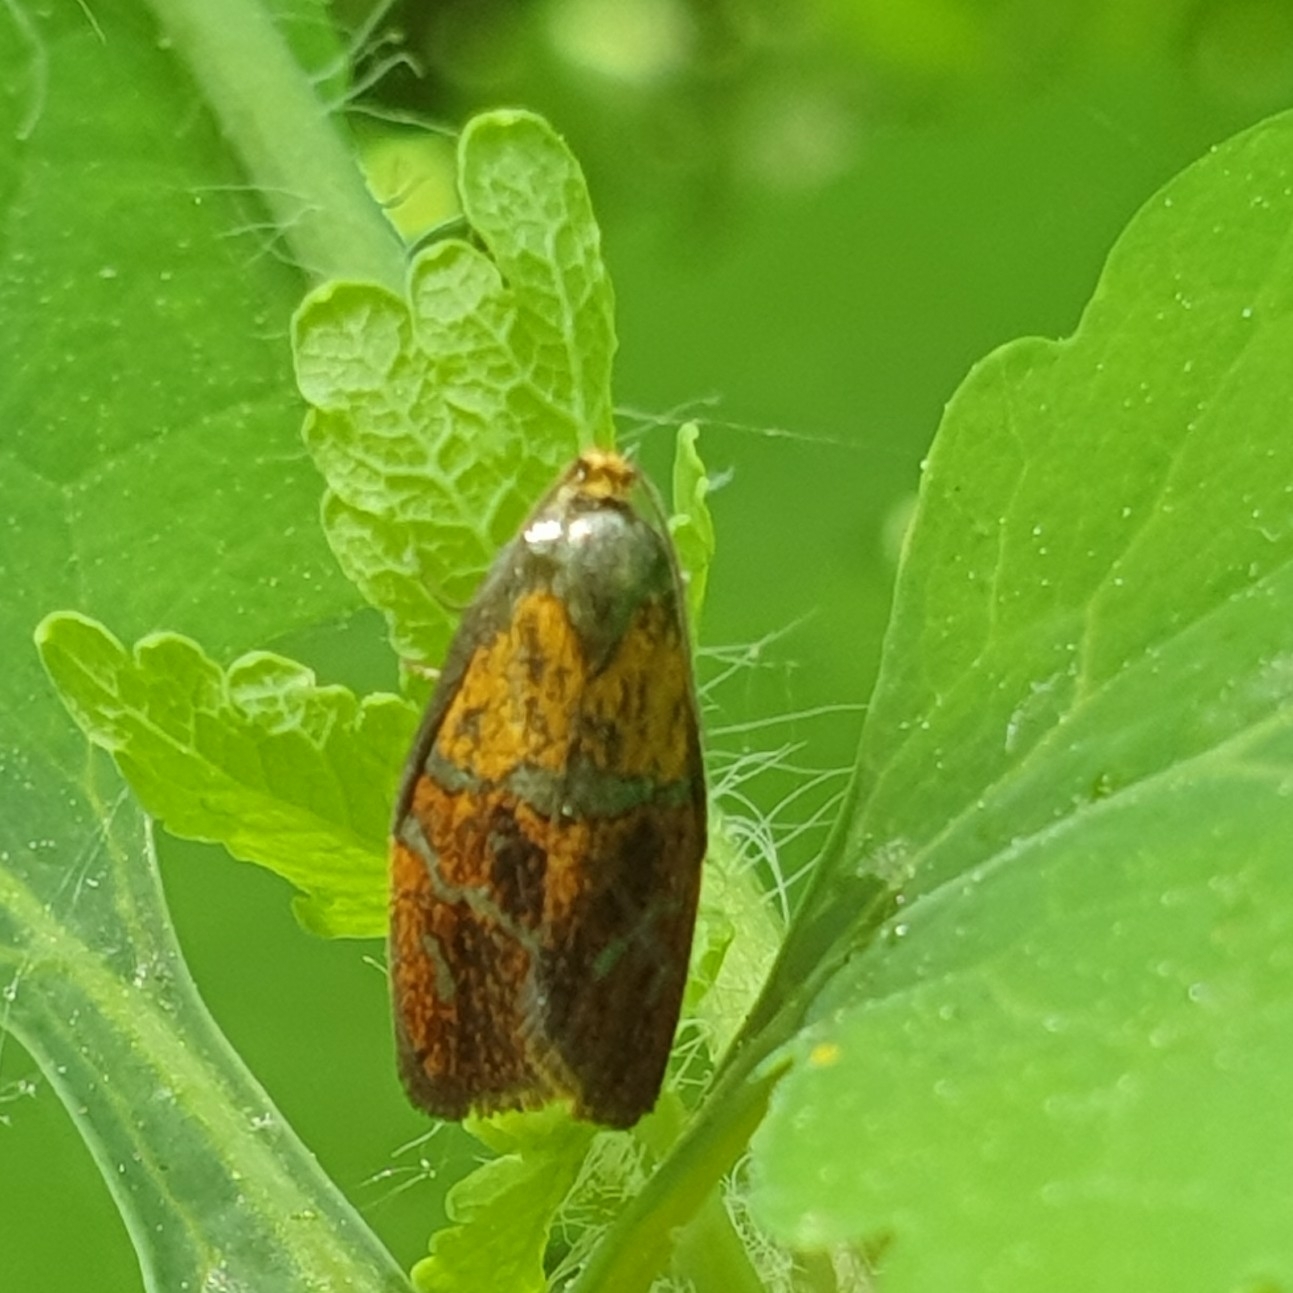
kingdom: Animalia
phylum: Arthropoda
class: Insecta
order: Lepidoptera
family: Tortricidae
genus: Ptycholoma
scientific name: Ptycholoma lecheana
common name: Leches twist moth
